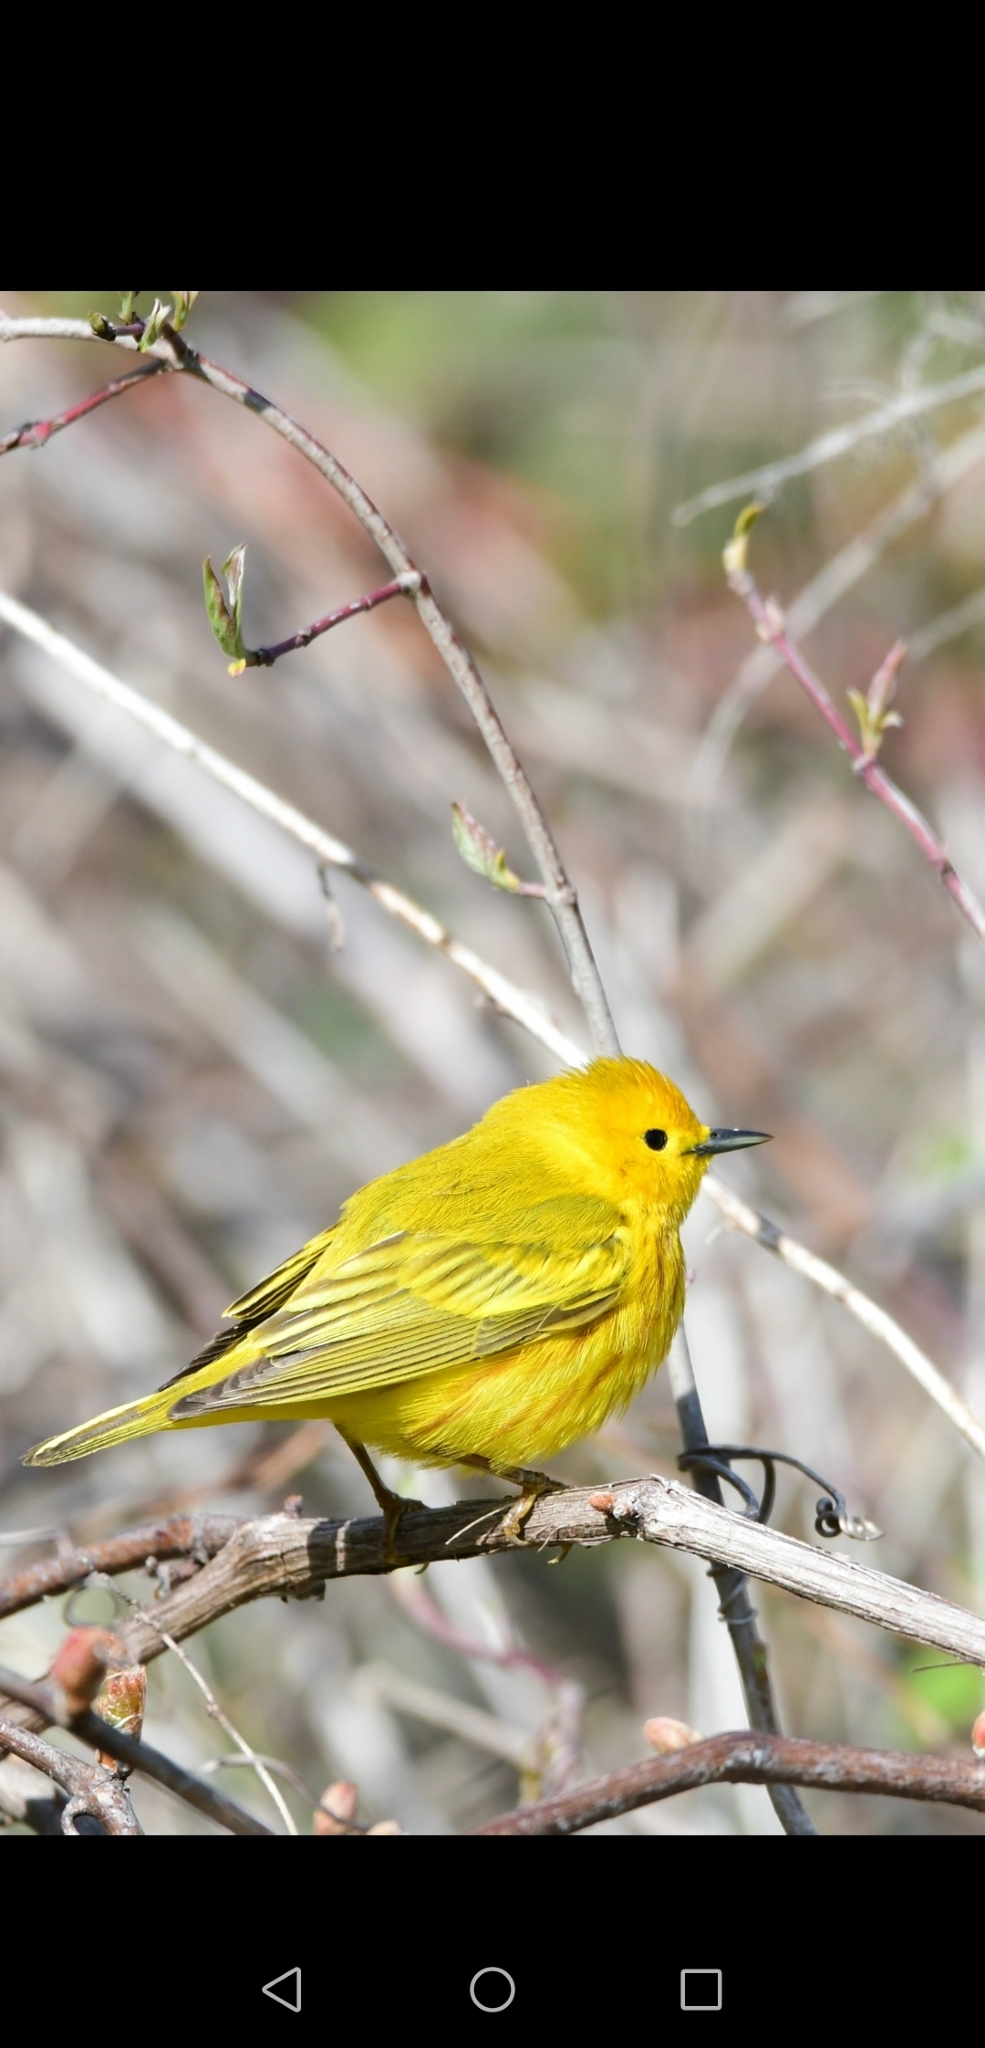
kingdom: Animalia
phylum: Chordata
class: Aves
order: Passeriformes
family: Parulidae
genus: Setophaga
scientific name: Setophaga petechia
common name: Yellow warbler
